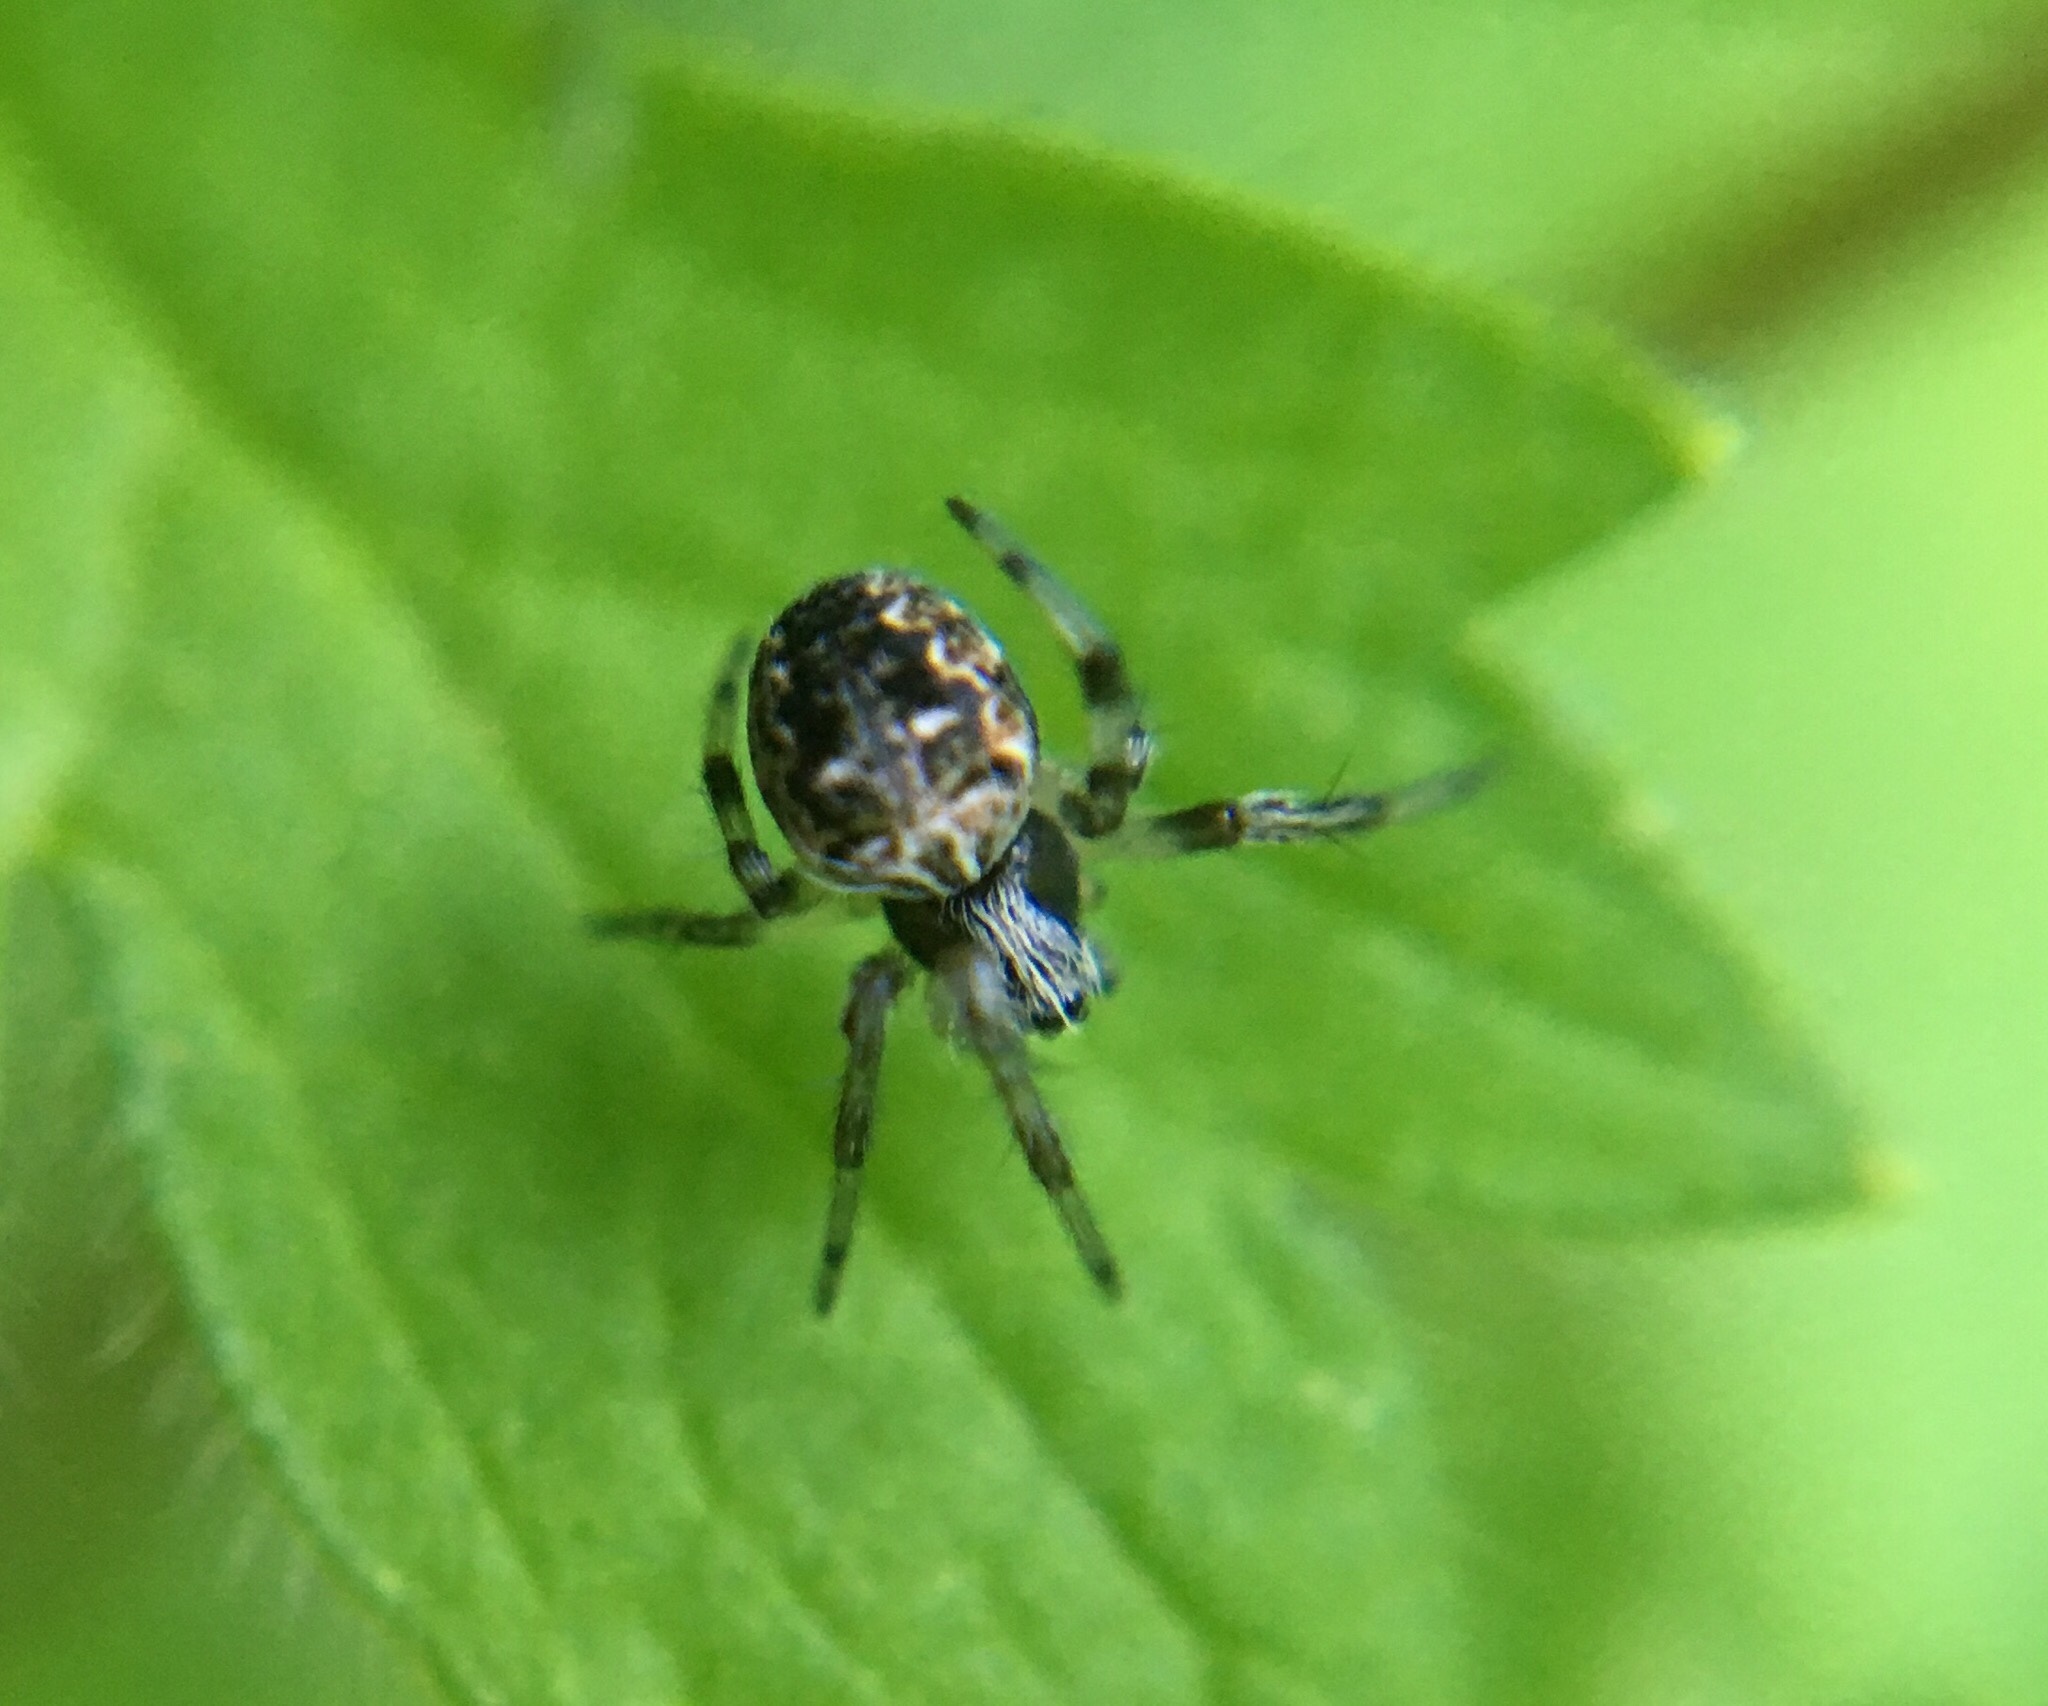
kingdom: Animalia
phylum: Arthropoda
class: Arachnida
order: Araneae
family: Araneidae
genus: Metepeira
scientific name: Metepeira labyrinthea
